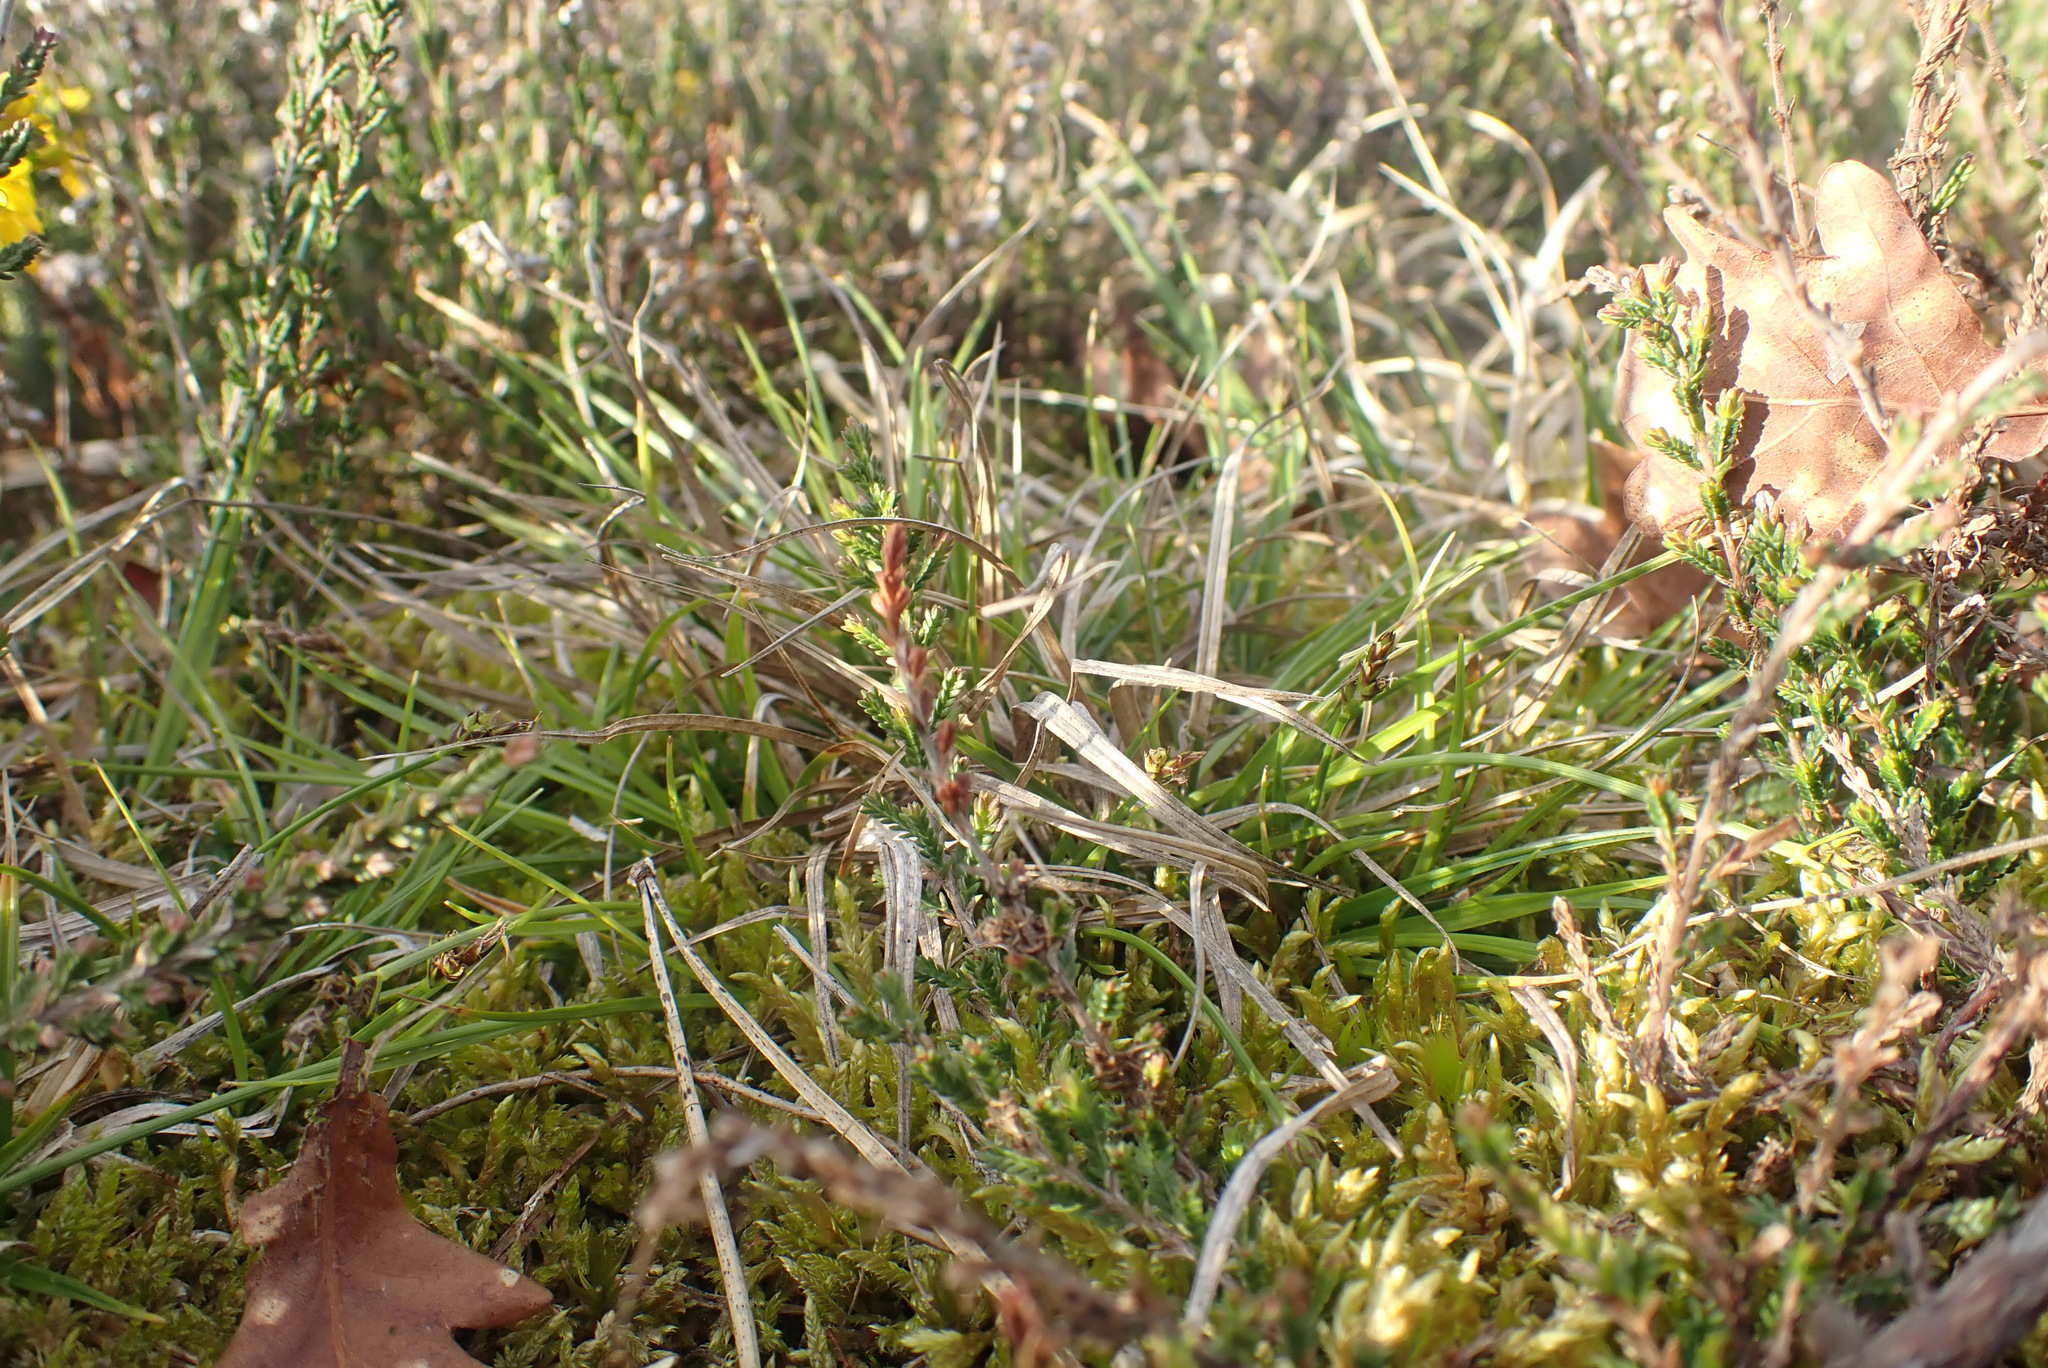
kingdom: Plantae
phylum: Tracheophyta
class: Liliopsida
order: Poales
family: Cyperaceae
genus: Carex
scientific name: Carex pilulifera
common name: Pill sedge
